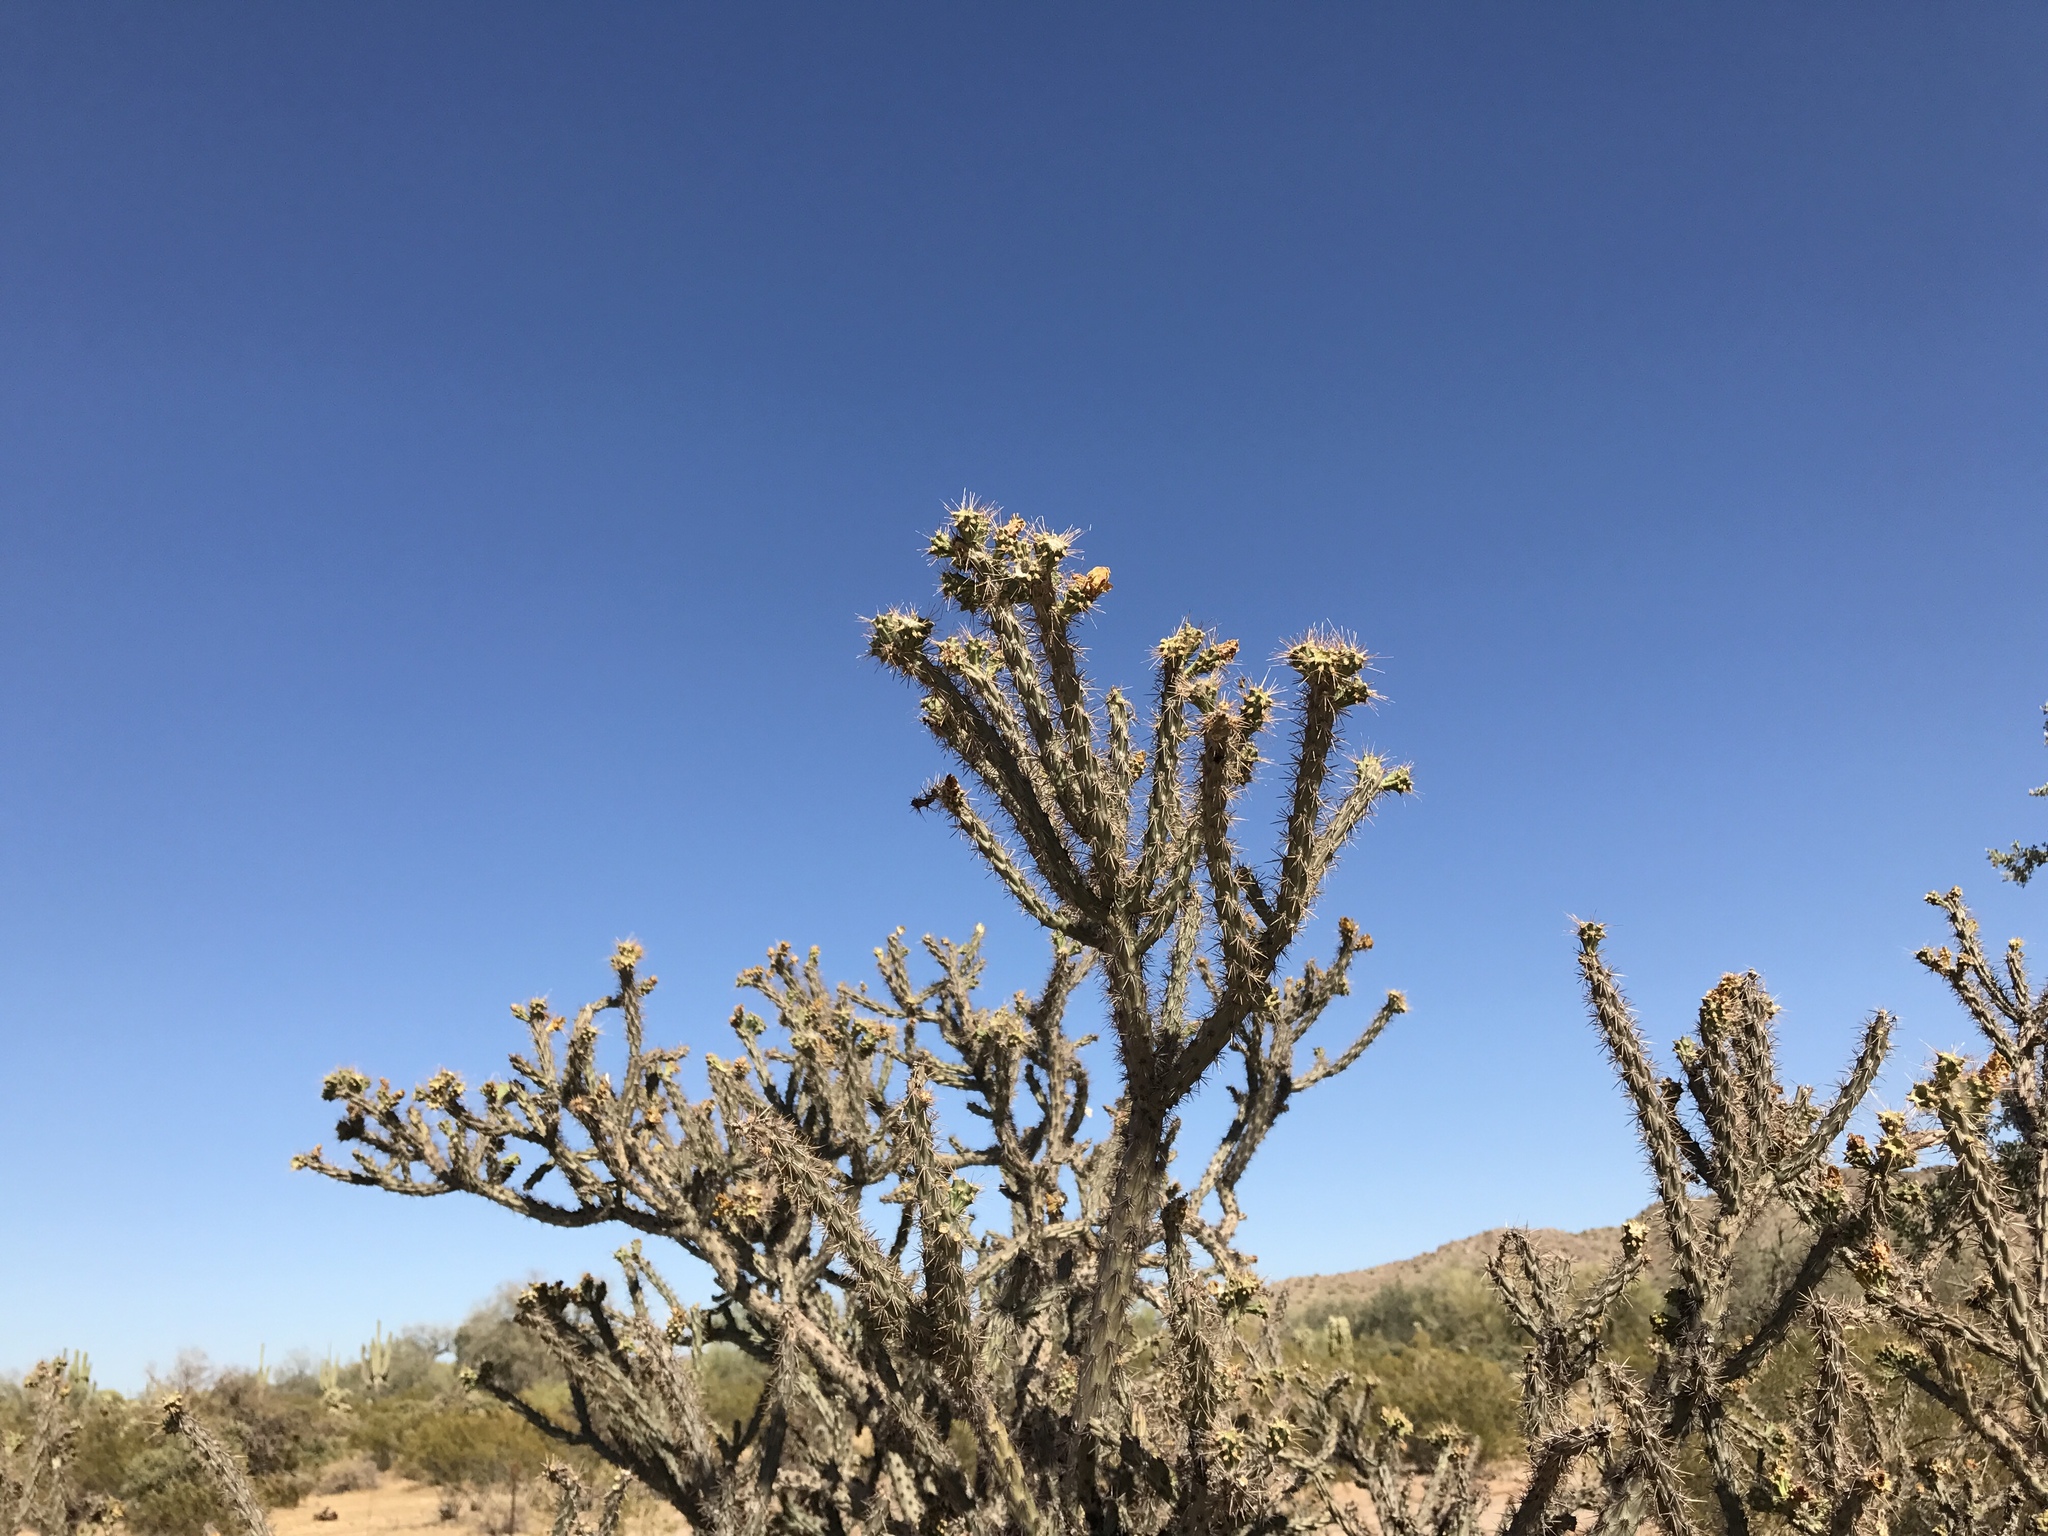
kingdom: Plantae
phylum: Tracheophyta
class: Magnoliopsida
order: Caryophyllales
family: Cactaceae
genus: Cylindropuntia
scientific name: Cylindropuntia acanthocarpa
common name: Buckhorn cholla
